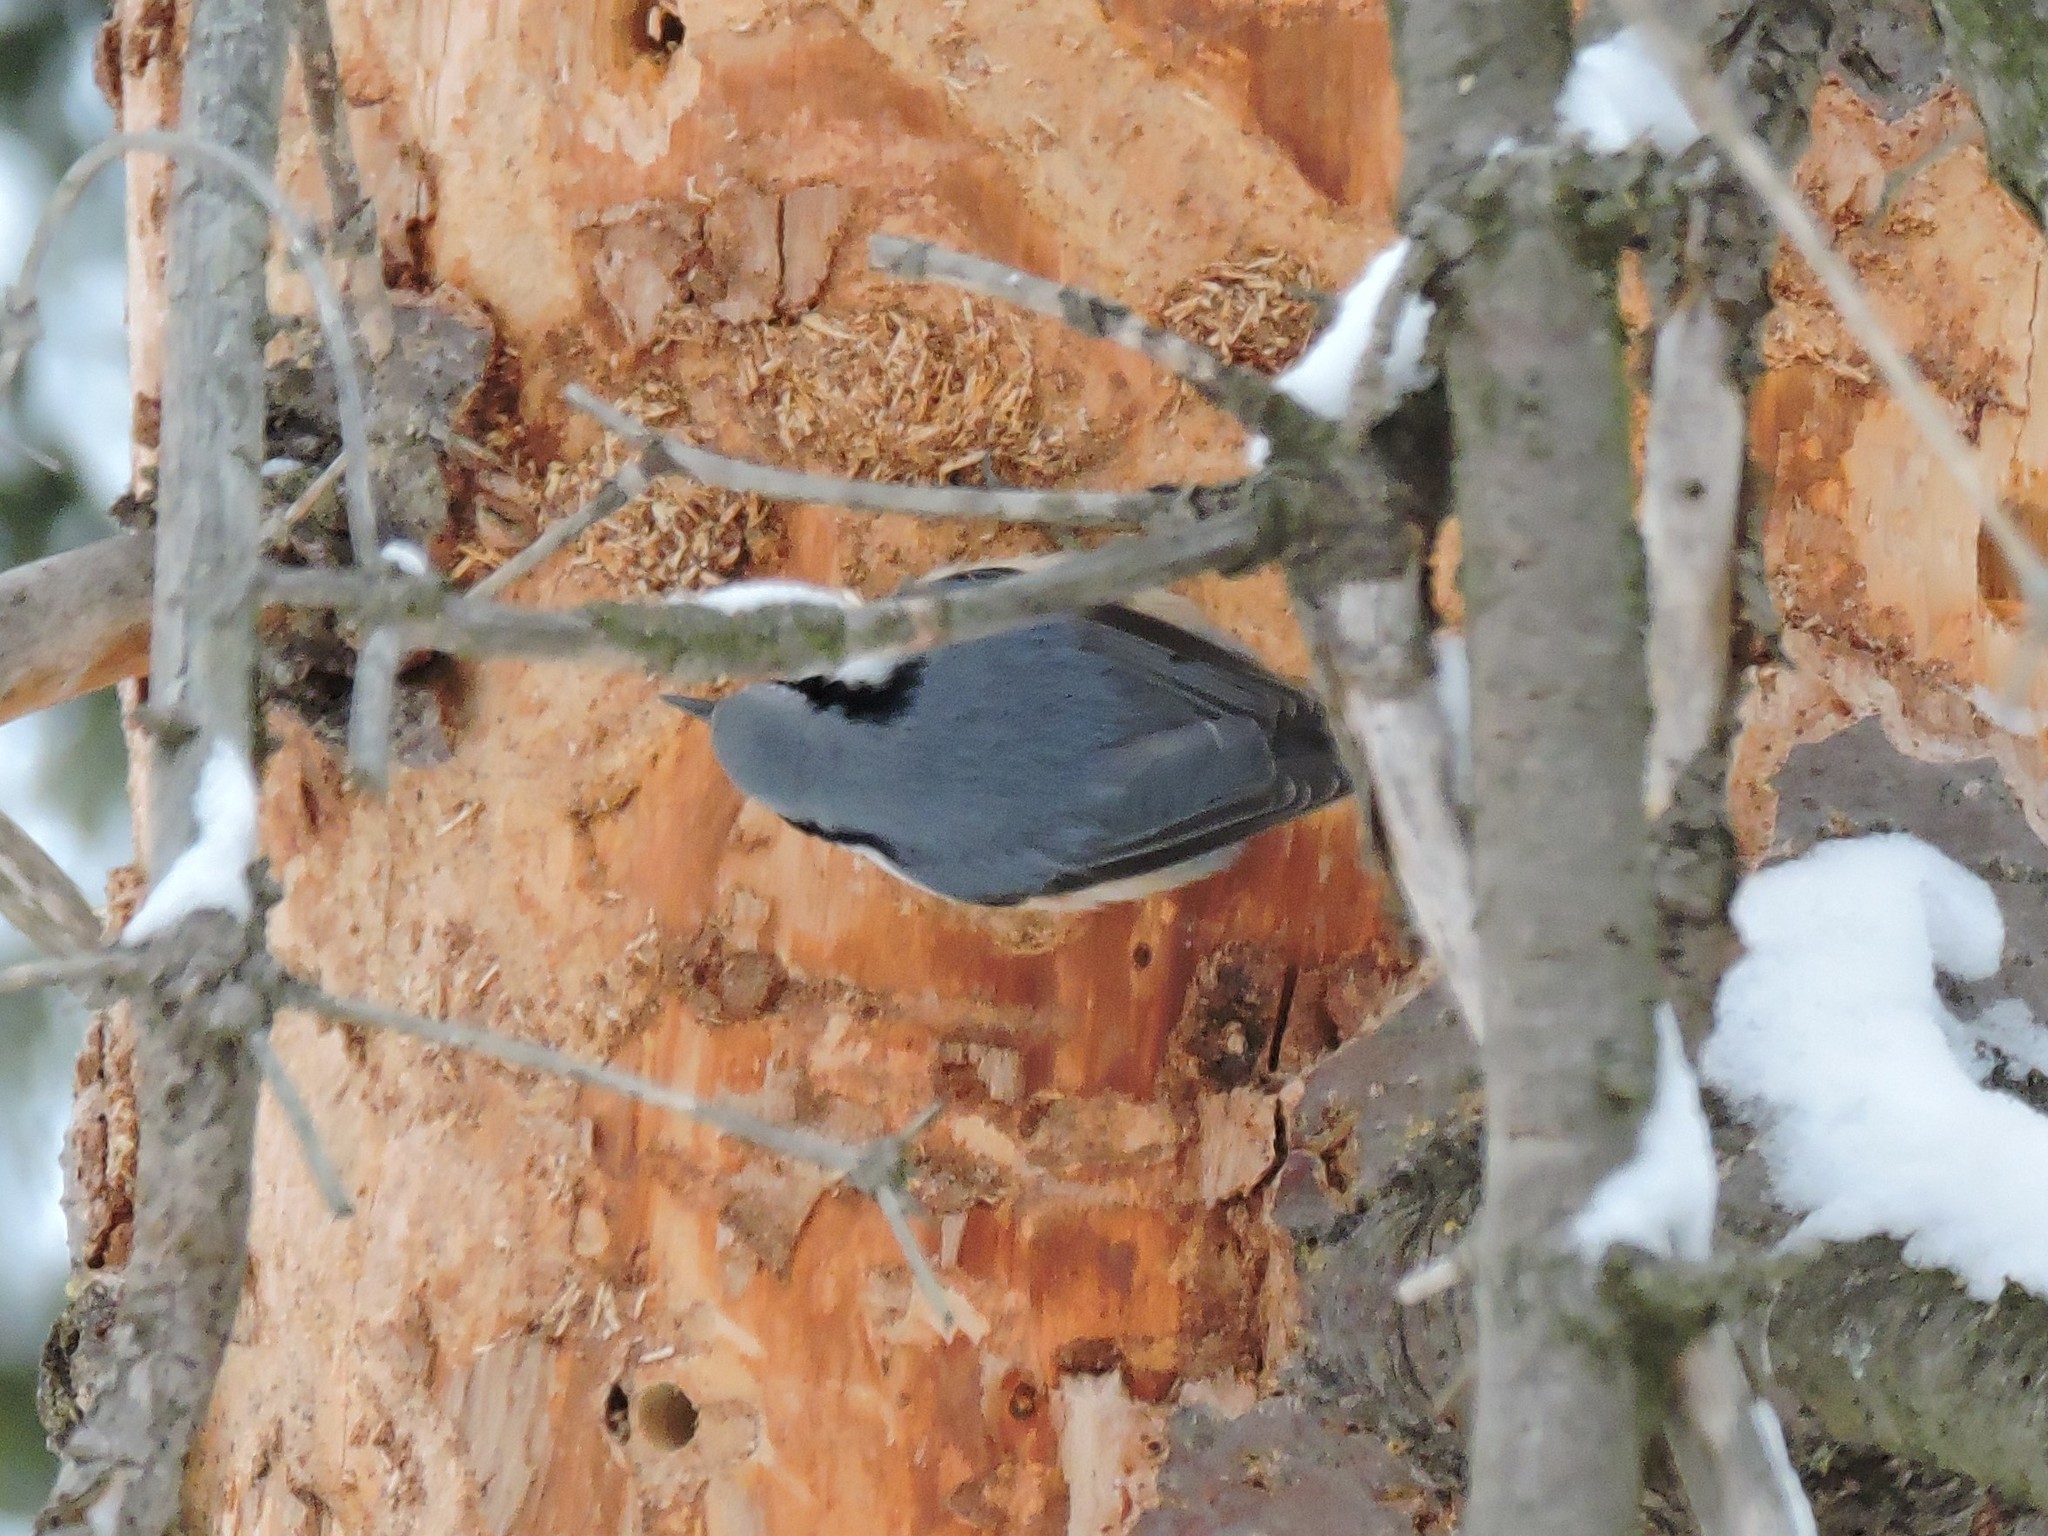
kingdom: Animalia
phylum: Chordata
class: Aves
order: Passeriformes
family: Sittidae
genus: Sitta
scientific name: Sitta europaea
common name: Eurasian nuthatch
